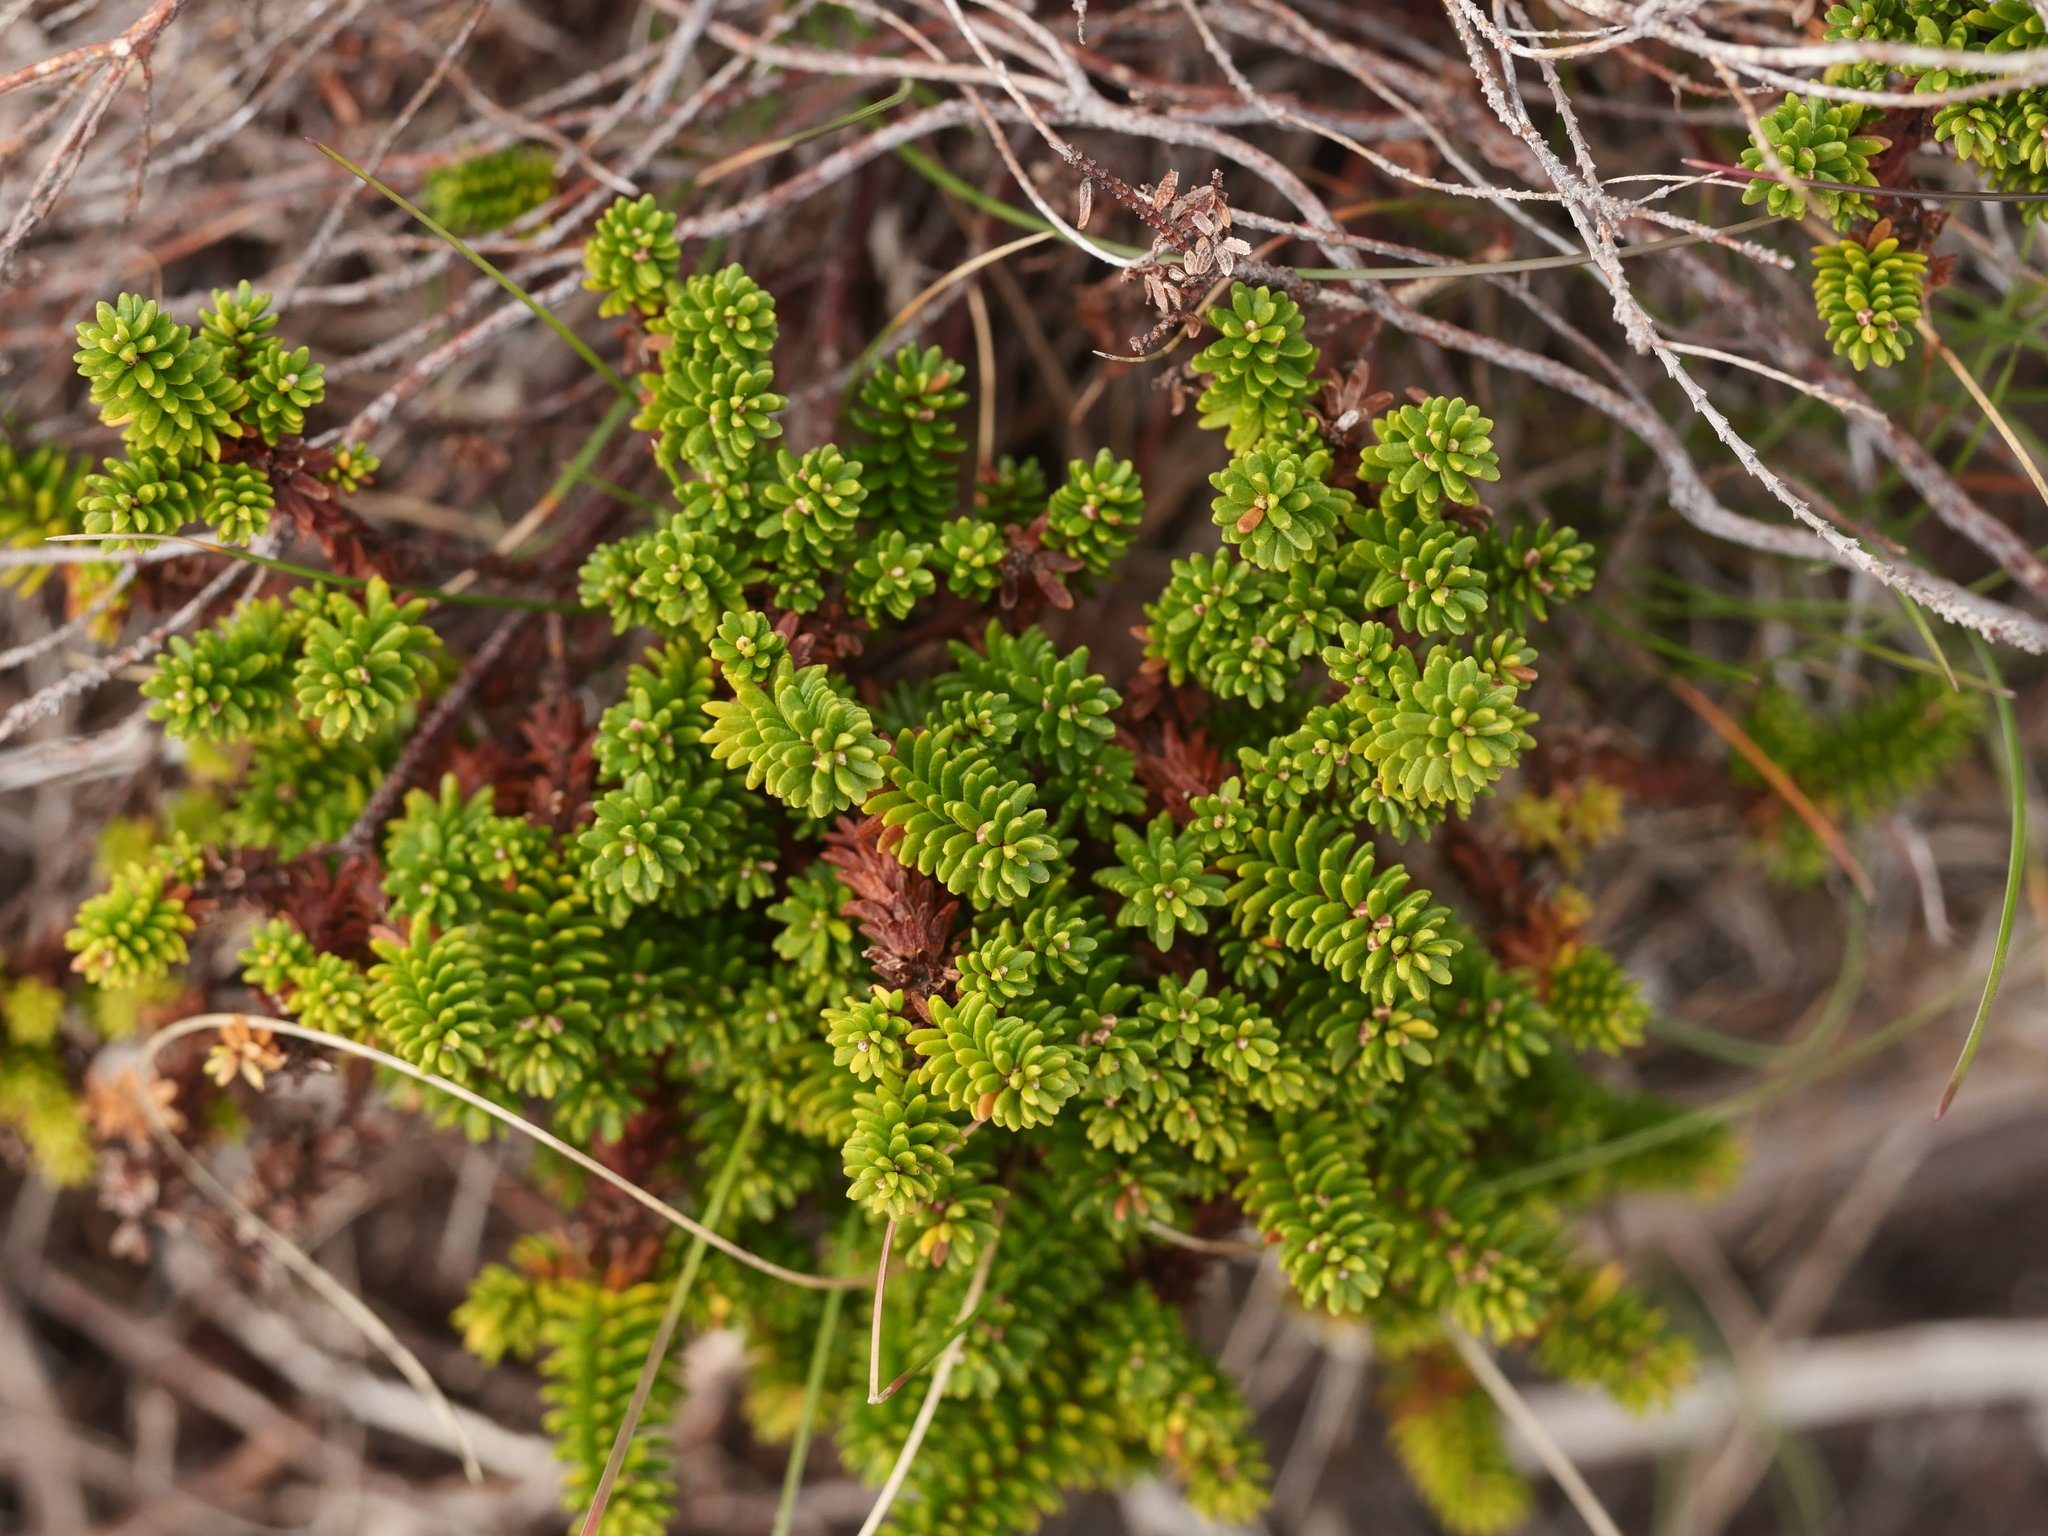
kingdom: Plantae
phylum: Tracheophyta
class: Magnoliopsida
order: Ericales
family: Ericaceae
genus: Empetrum
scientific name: Empetrum nigrum
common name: Black crowberry
